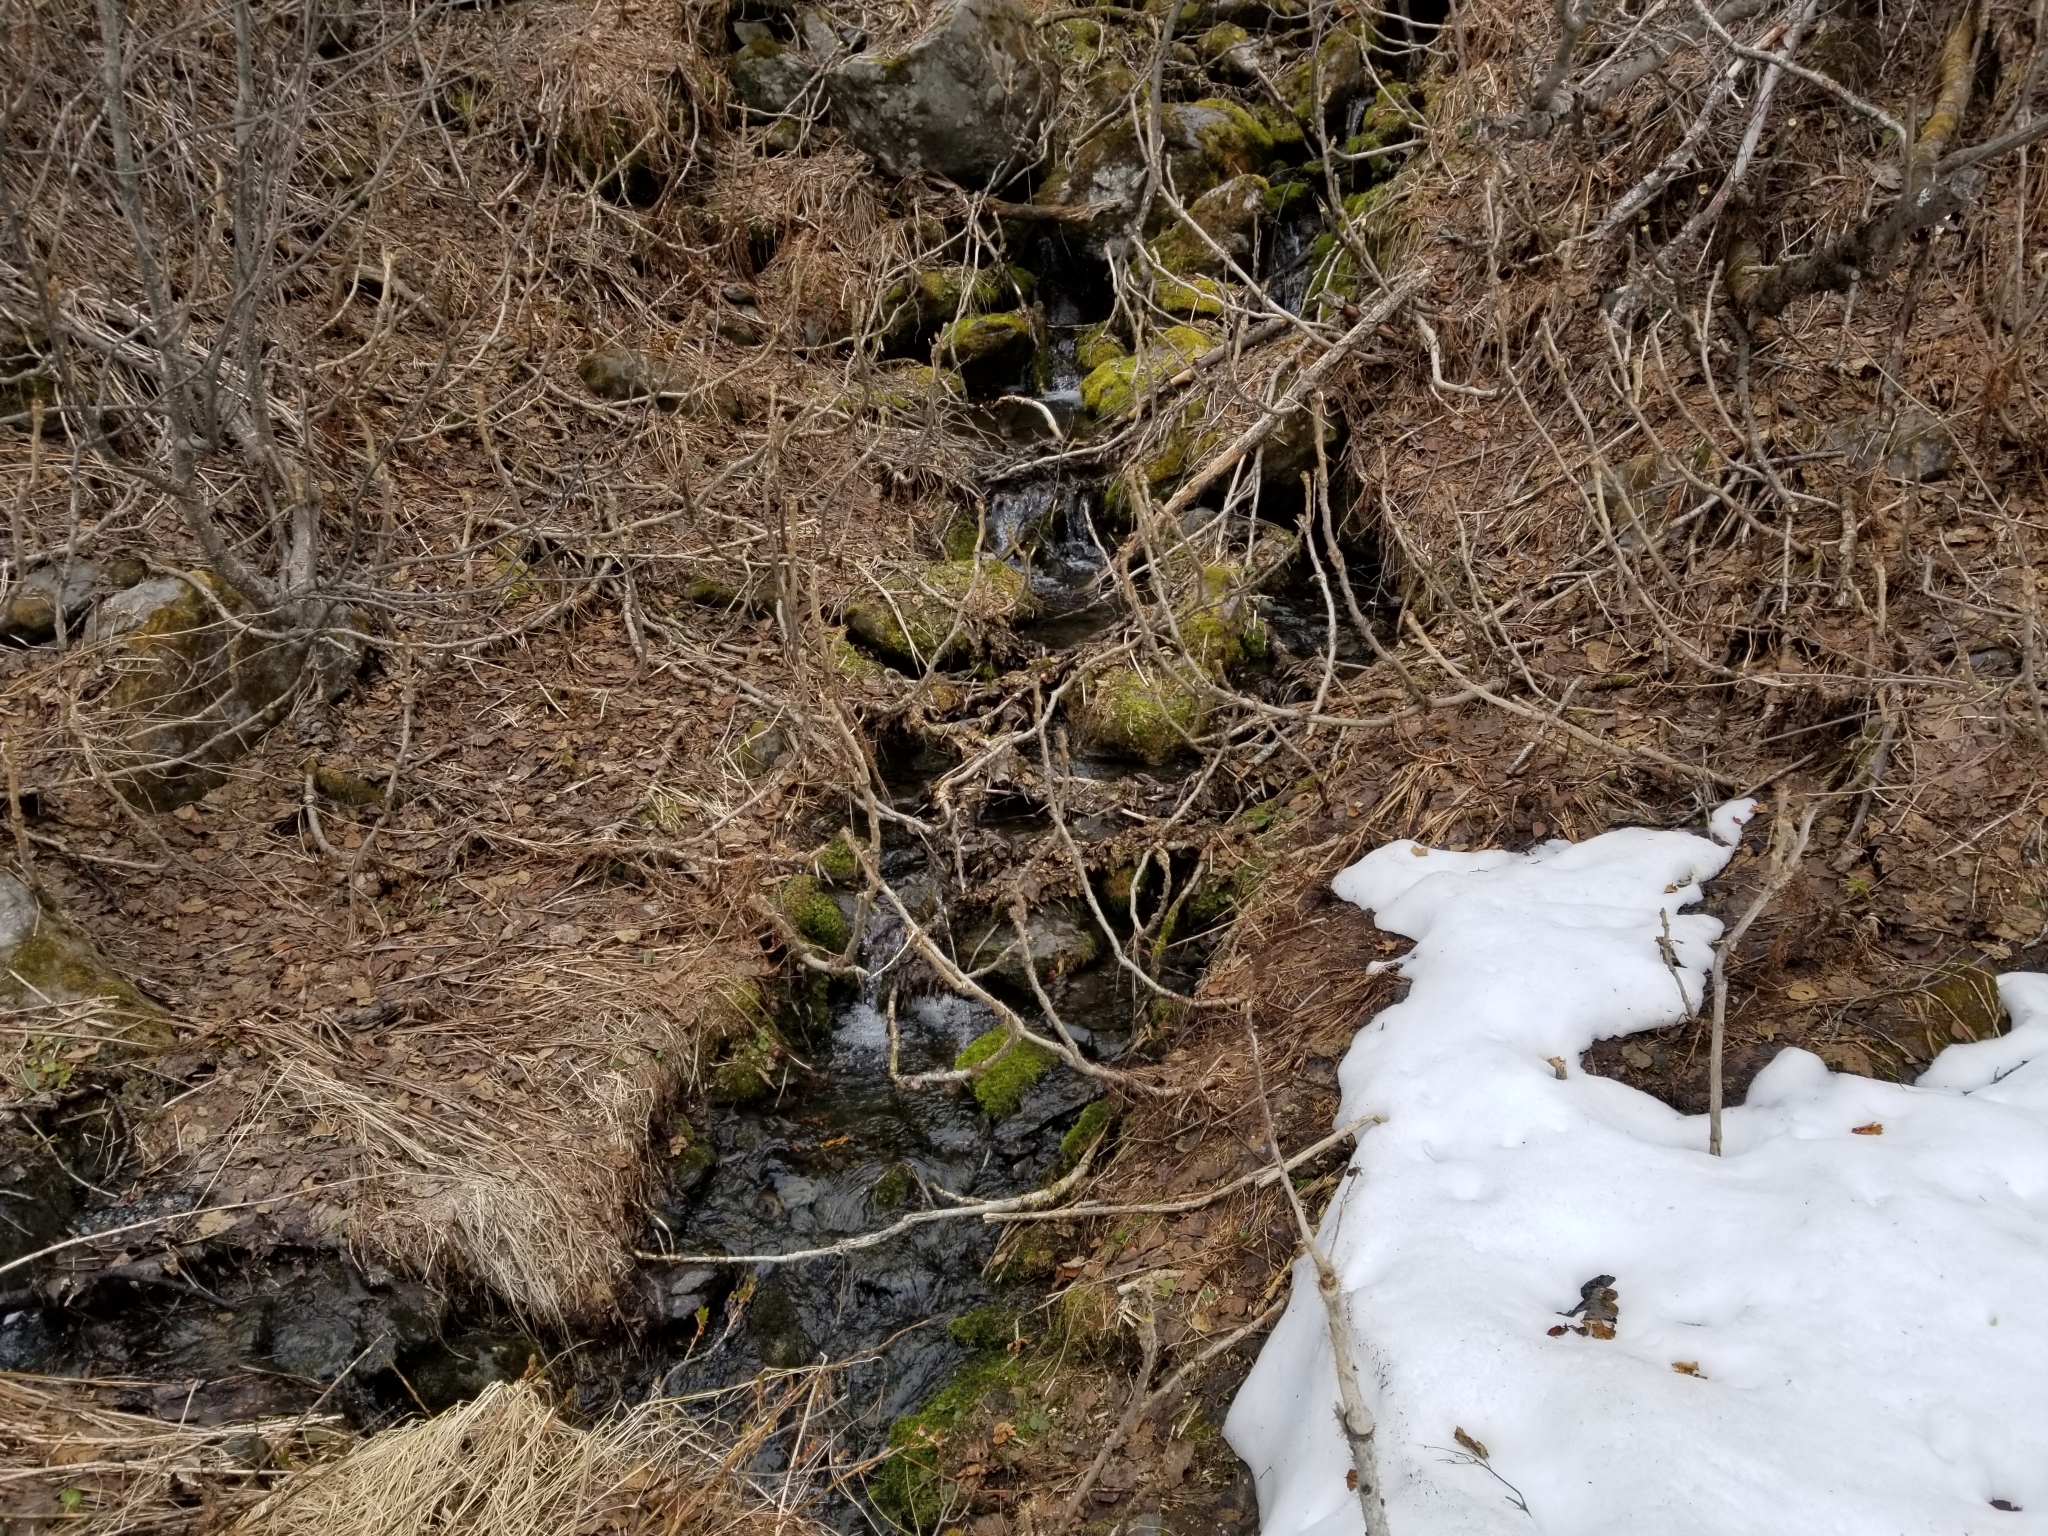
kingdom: Plantae
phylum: Tracheophyta
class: Magnoliopsida
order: Apiales
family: Araliaceae
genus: Oplopanax
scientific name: Oplopanax horridus
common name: Devil's walking-stick
